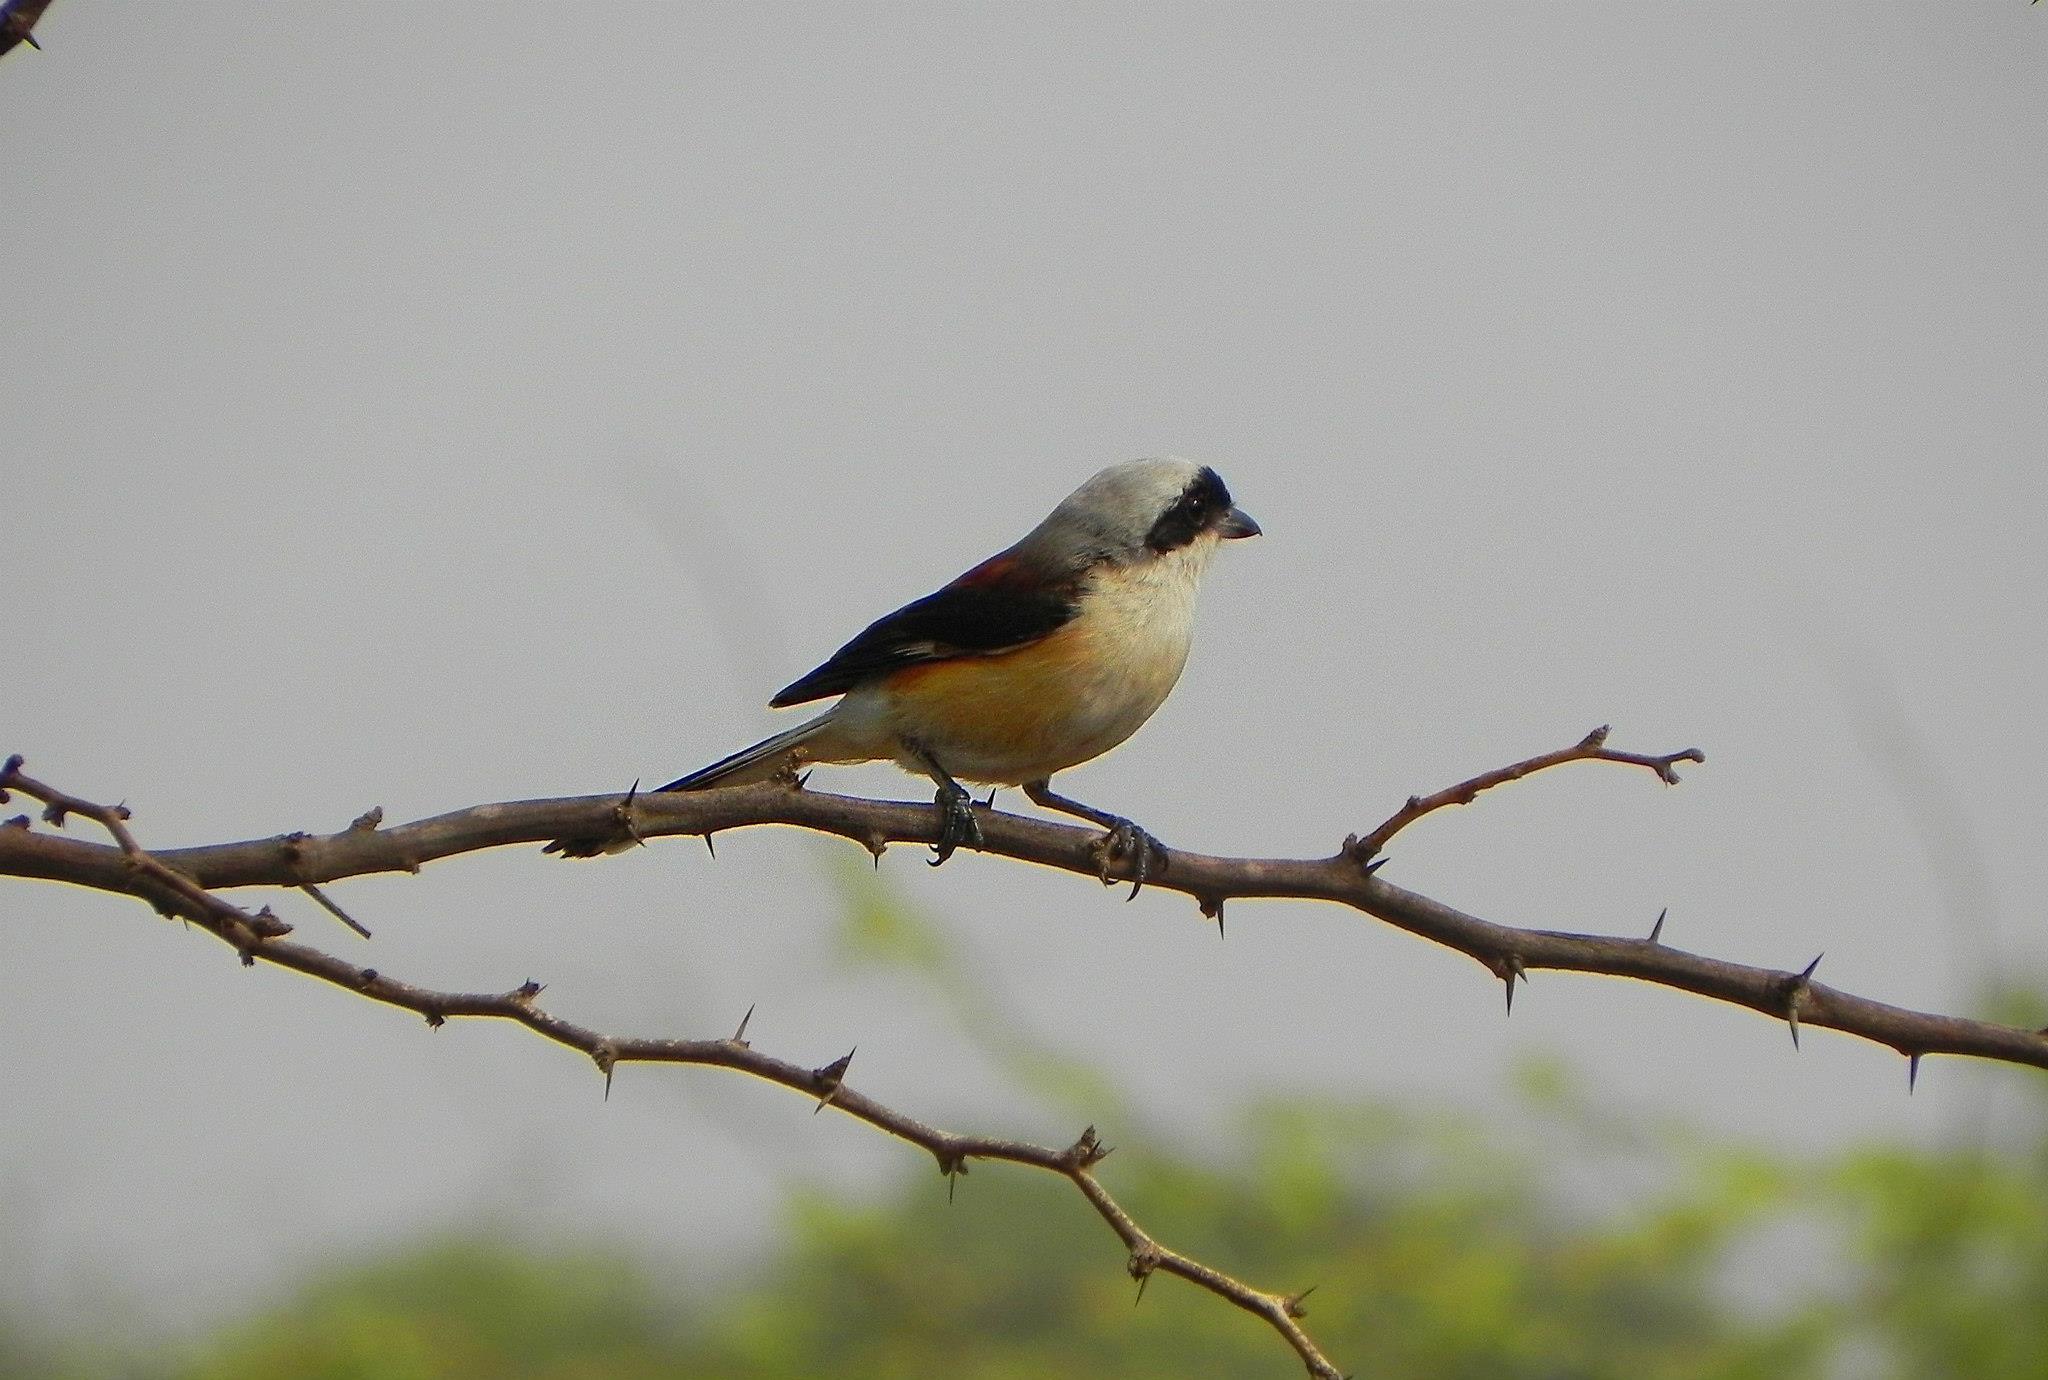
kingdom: Animalia
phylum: Chordata
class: Aves
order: Passeriformes
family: Laniidae
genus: Lanius
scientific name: Lanius vittatus
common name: Bay-backed shrike
